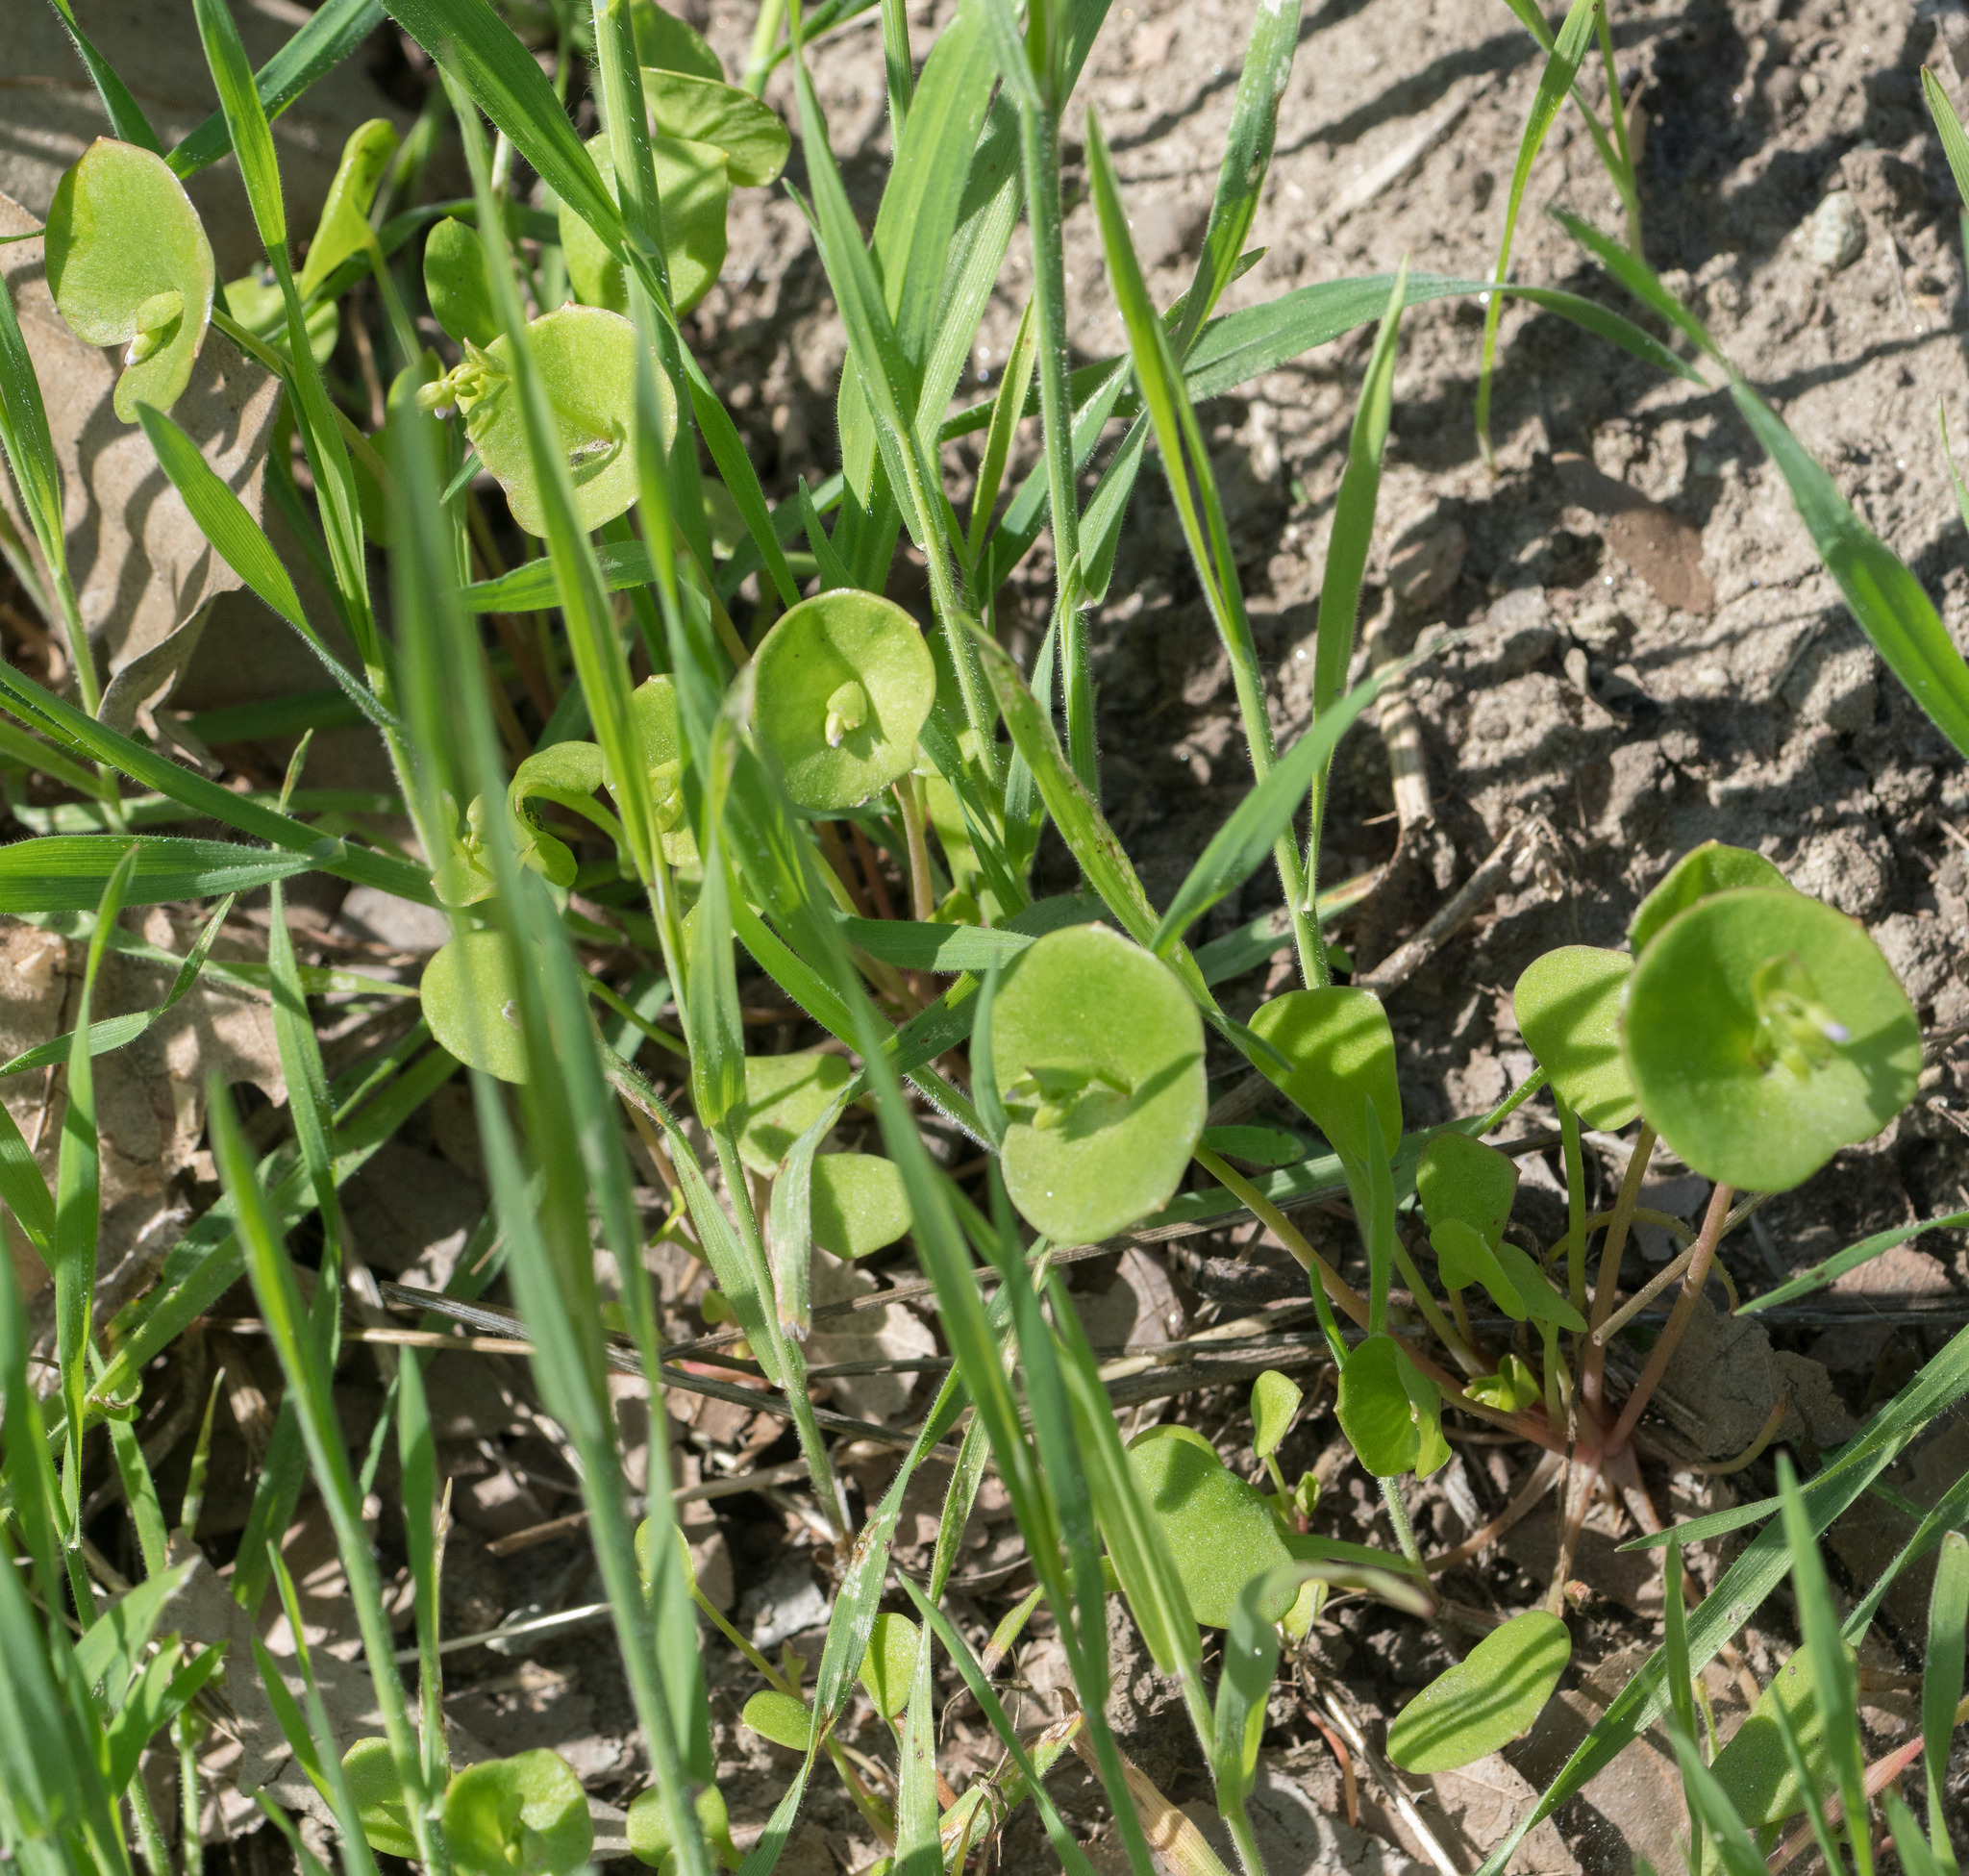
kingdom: Plantae
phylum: Tracheophyta
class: Magnoliopsida
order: Caryophyllales
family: Montiaceae
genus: Claytonia
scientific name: Claytonia perfoliata
